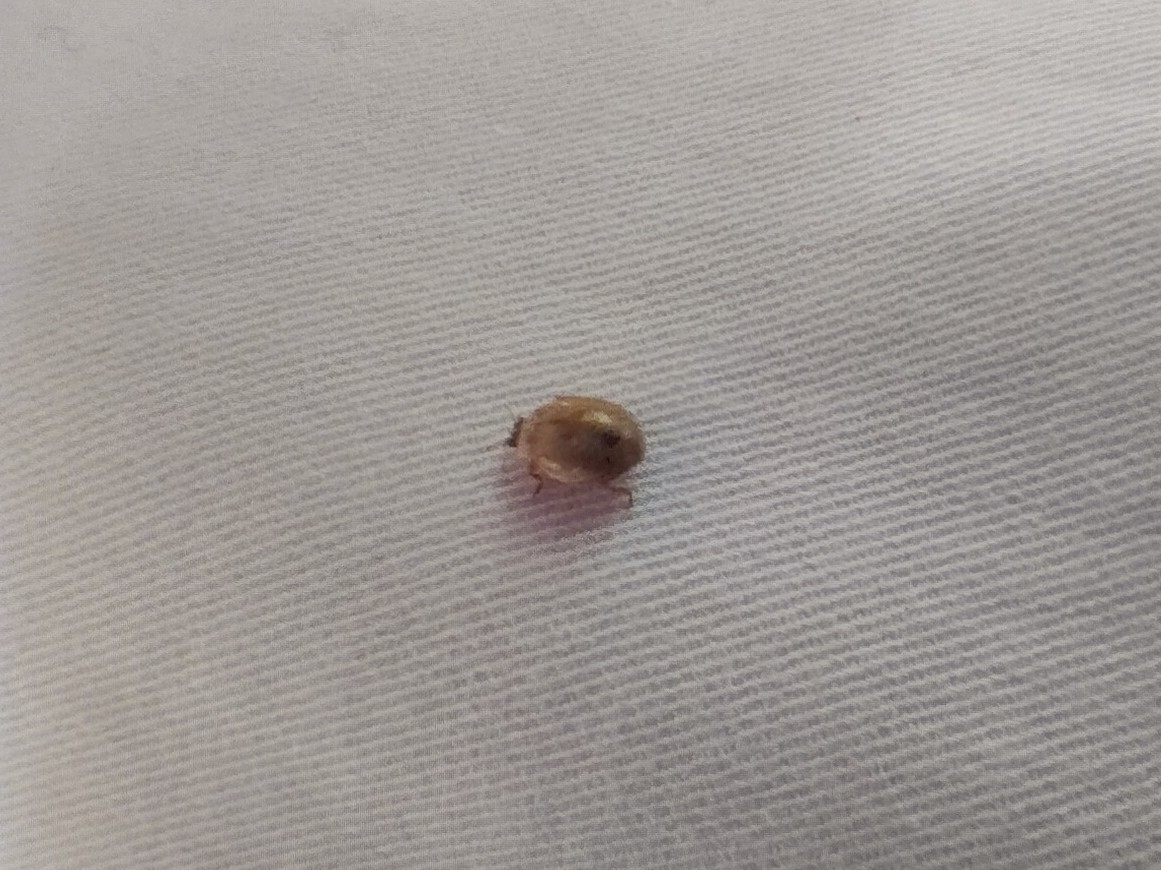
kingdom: Animalia
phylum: Arthropoda
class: Insecta
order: Coleoptera
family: Coccinellidae
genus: Adalia
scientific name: Adalia decempunctata
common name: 10-spot ladybird
